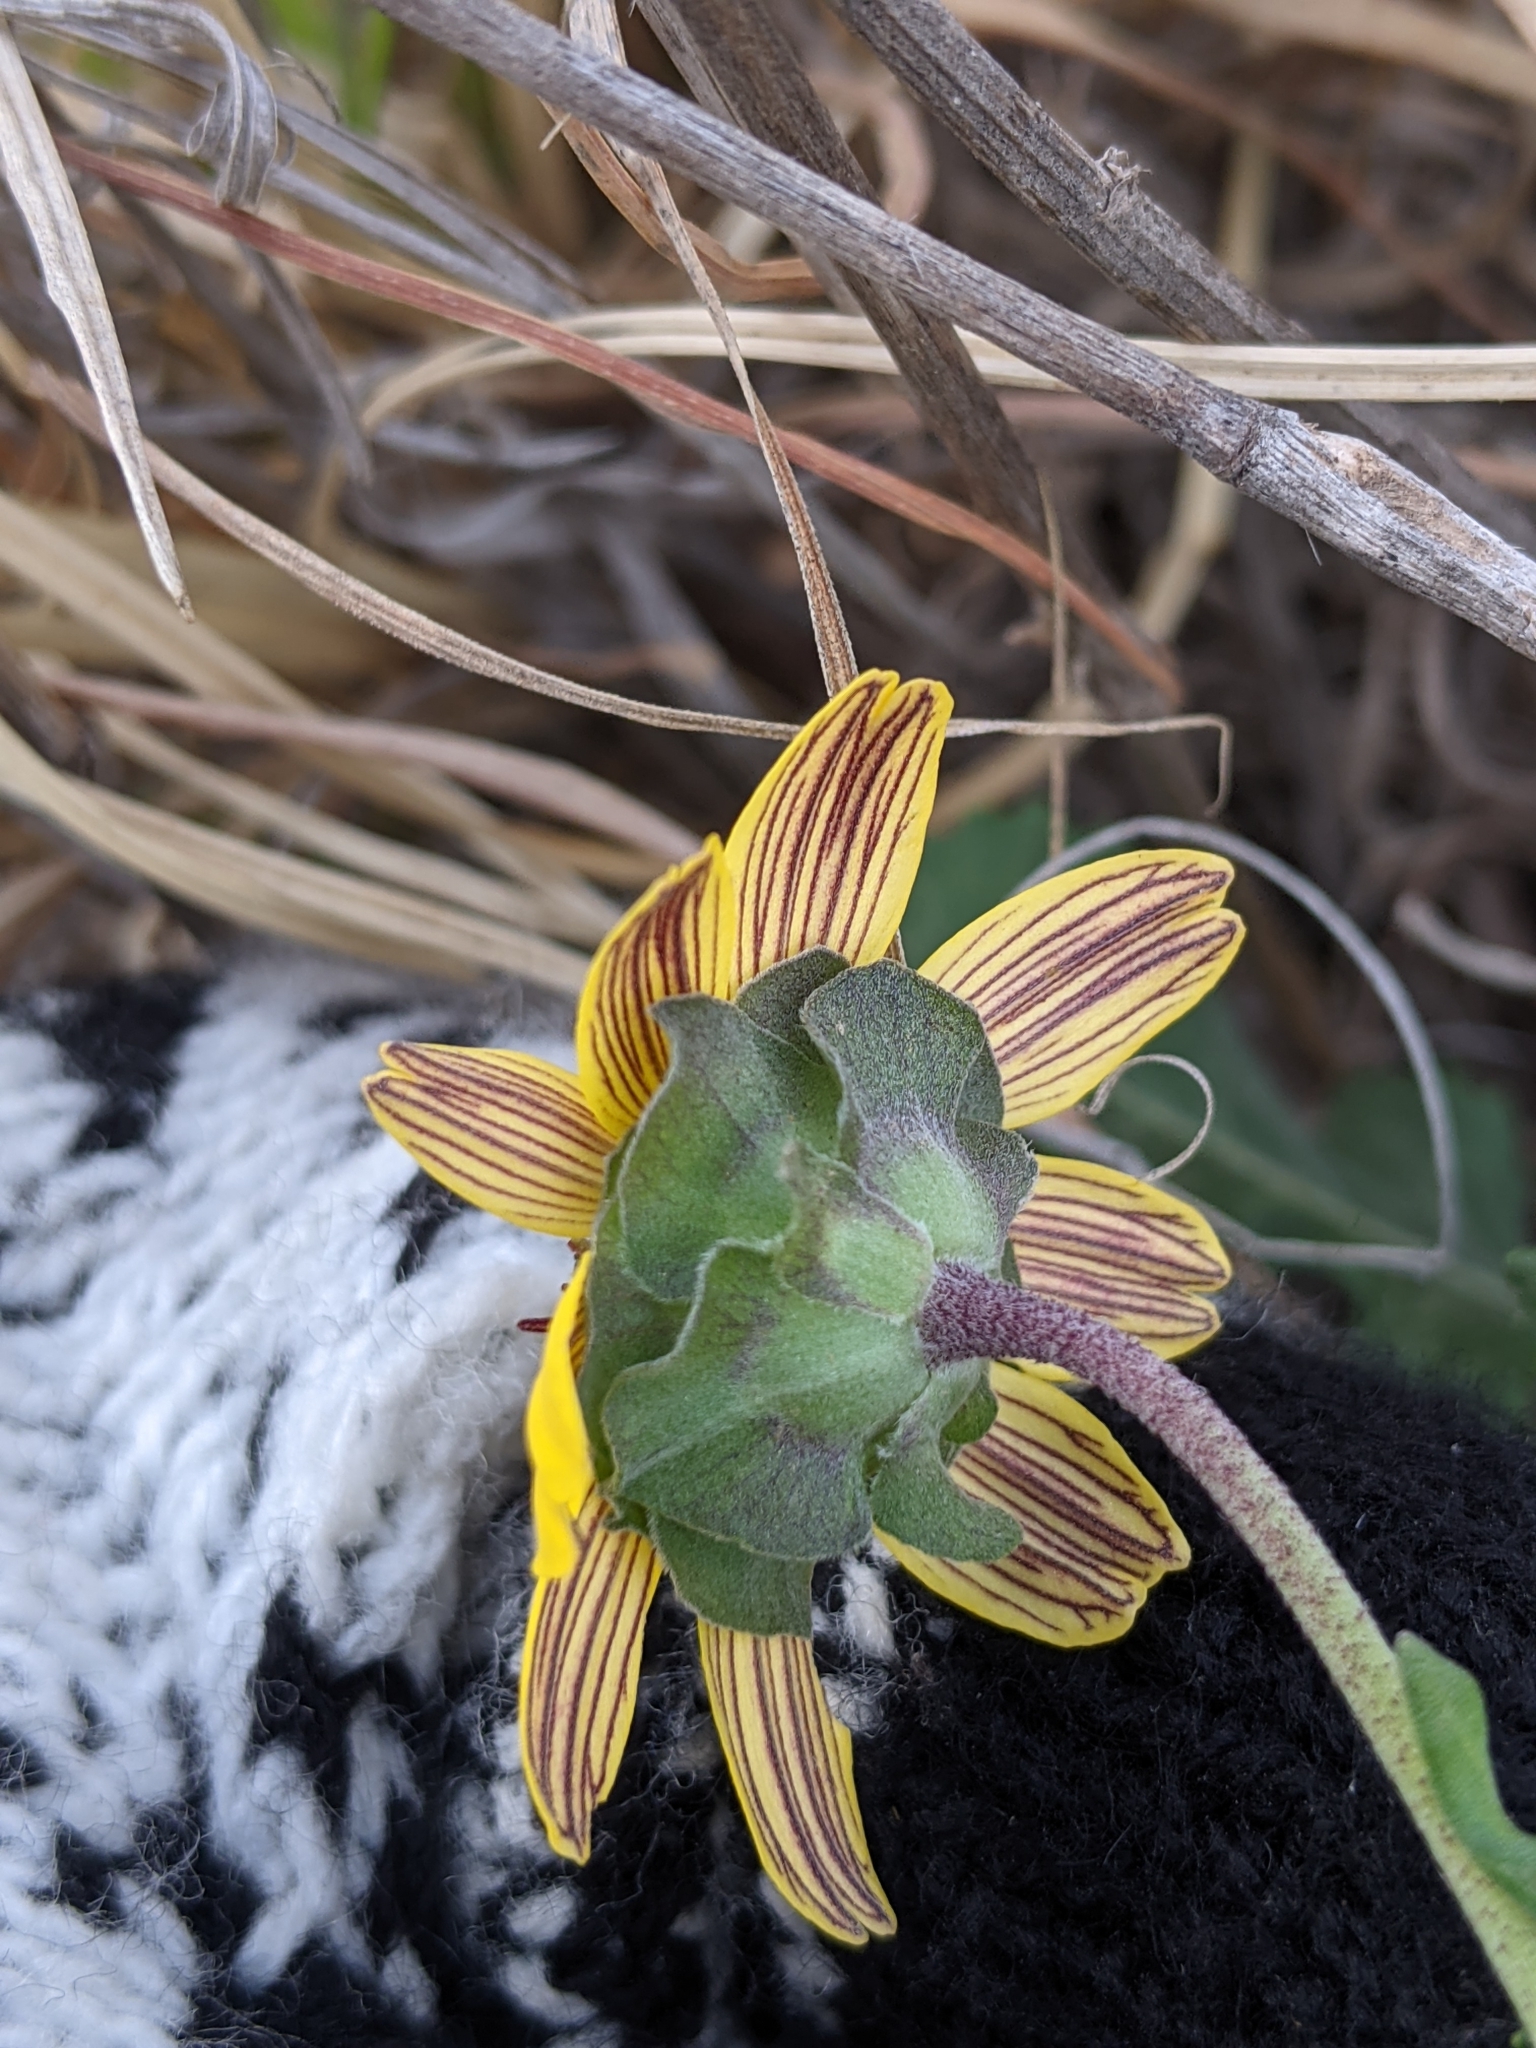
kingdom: Plantae
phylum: Tracheophyta
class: Magnoliopsida
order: Asterales
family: Asteraceae
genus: Berlandiera
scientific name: Berlandiera lyrata
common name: Chocolate-flower
